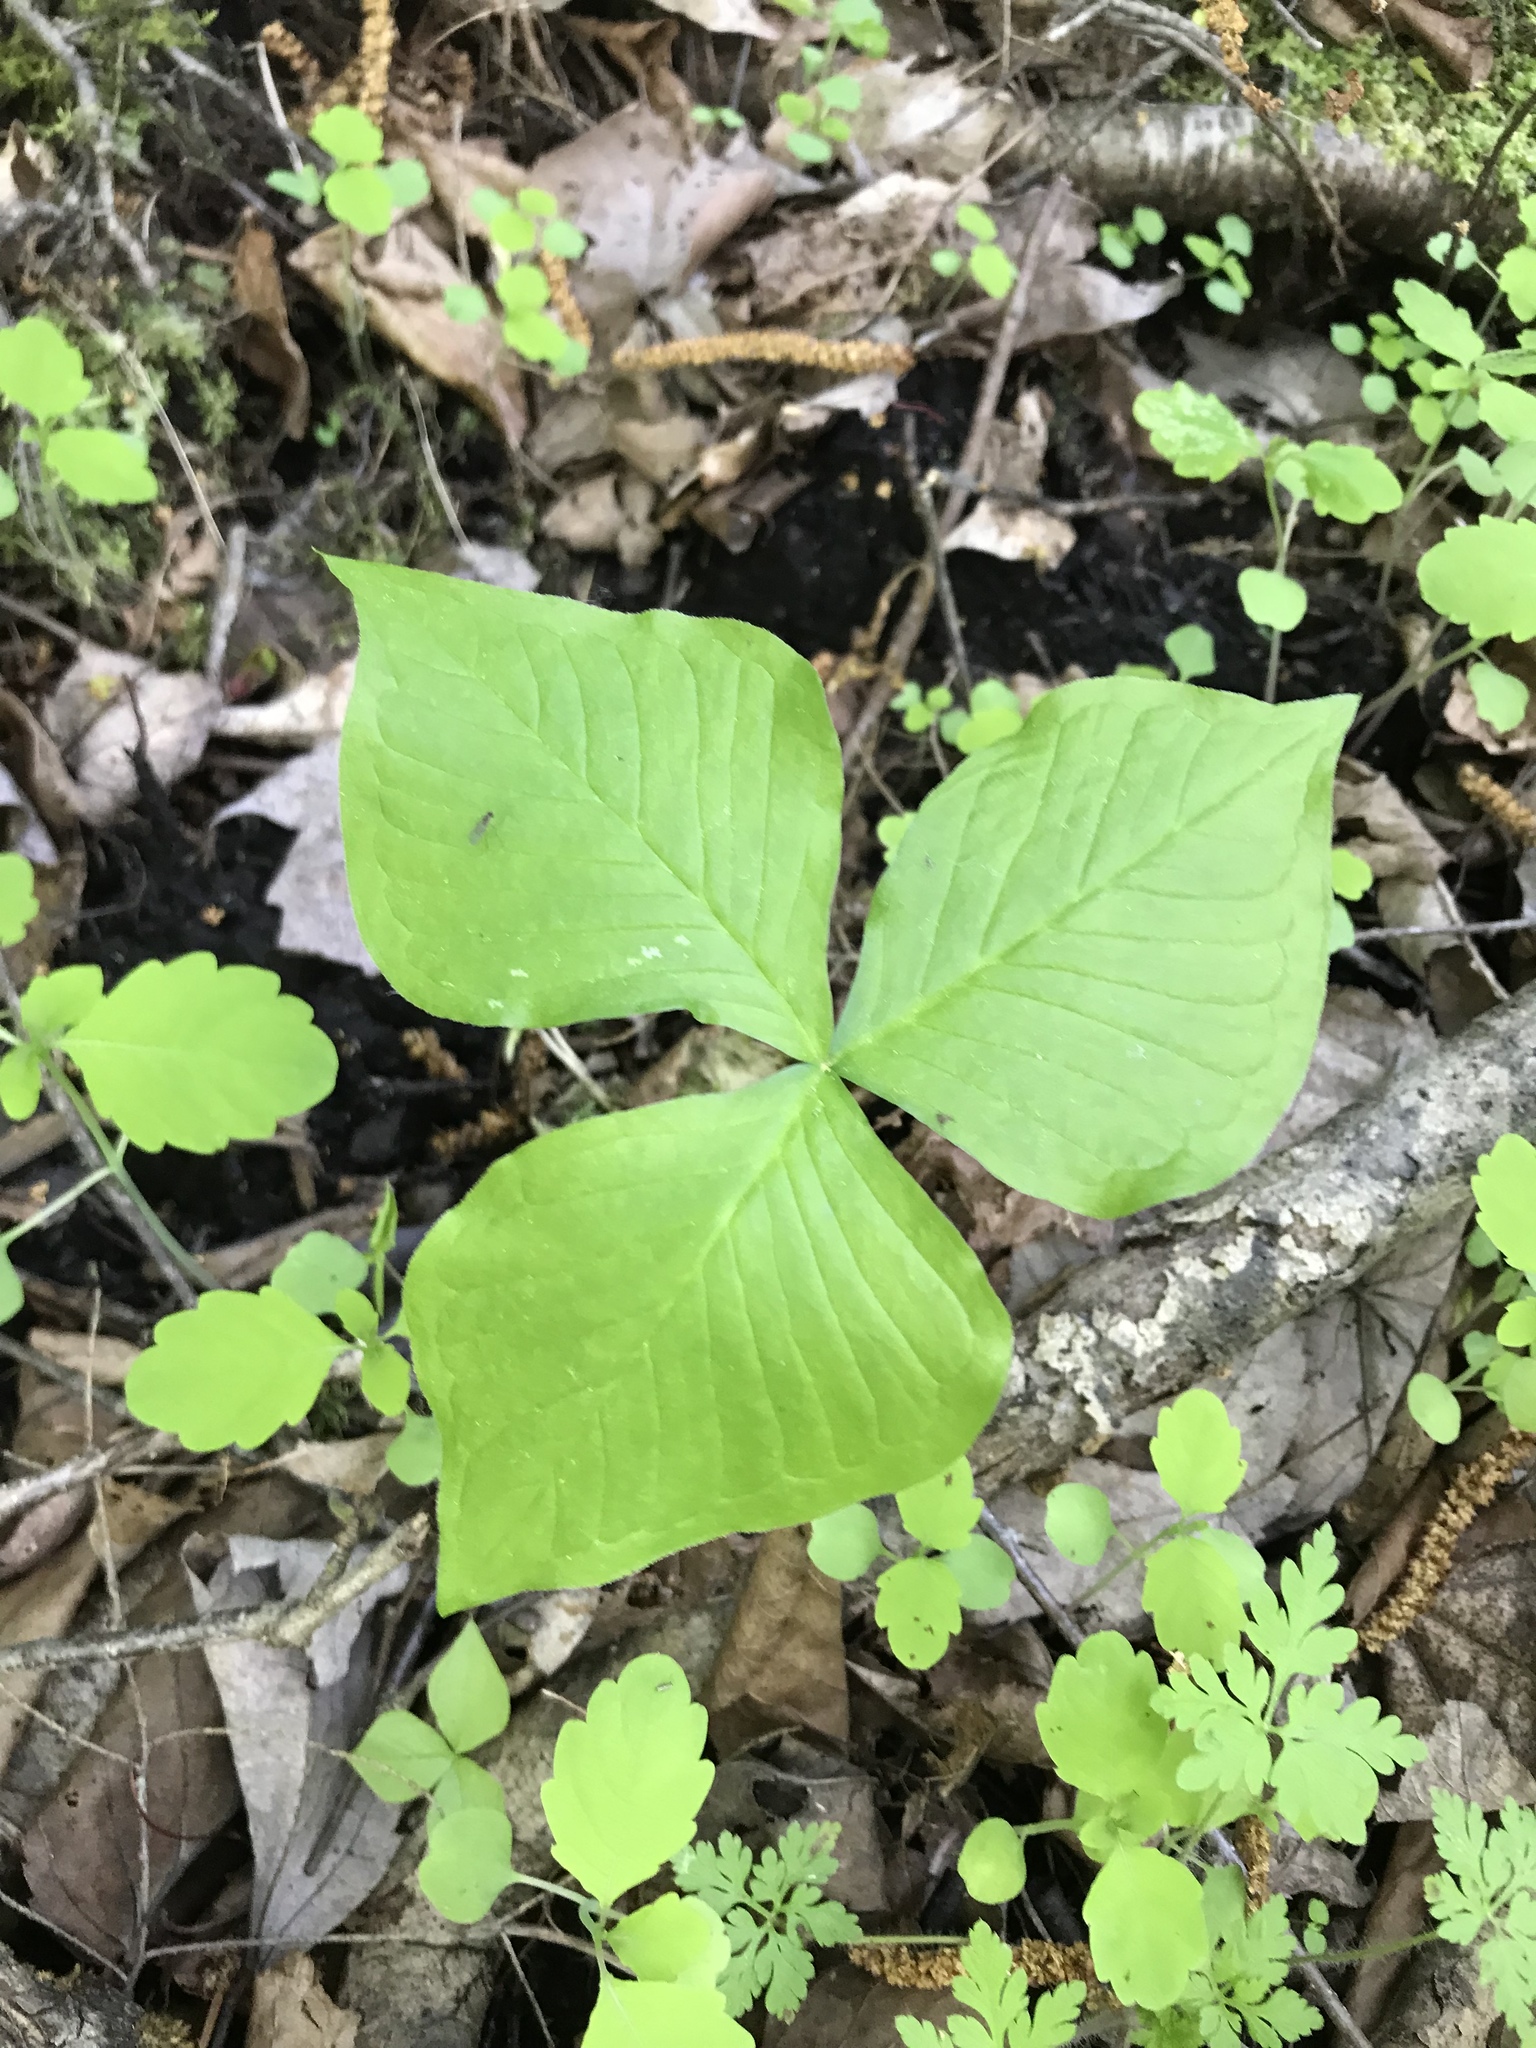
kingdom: Plantae
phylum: Tracheophyta
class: Liliopsida
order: Alismatales
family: Araceae
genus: Arisaema
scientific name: Arisaema triphyllum
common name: Jack-in-the-pulpit
